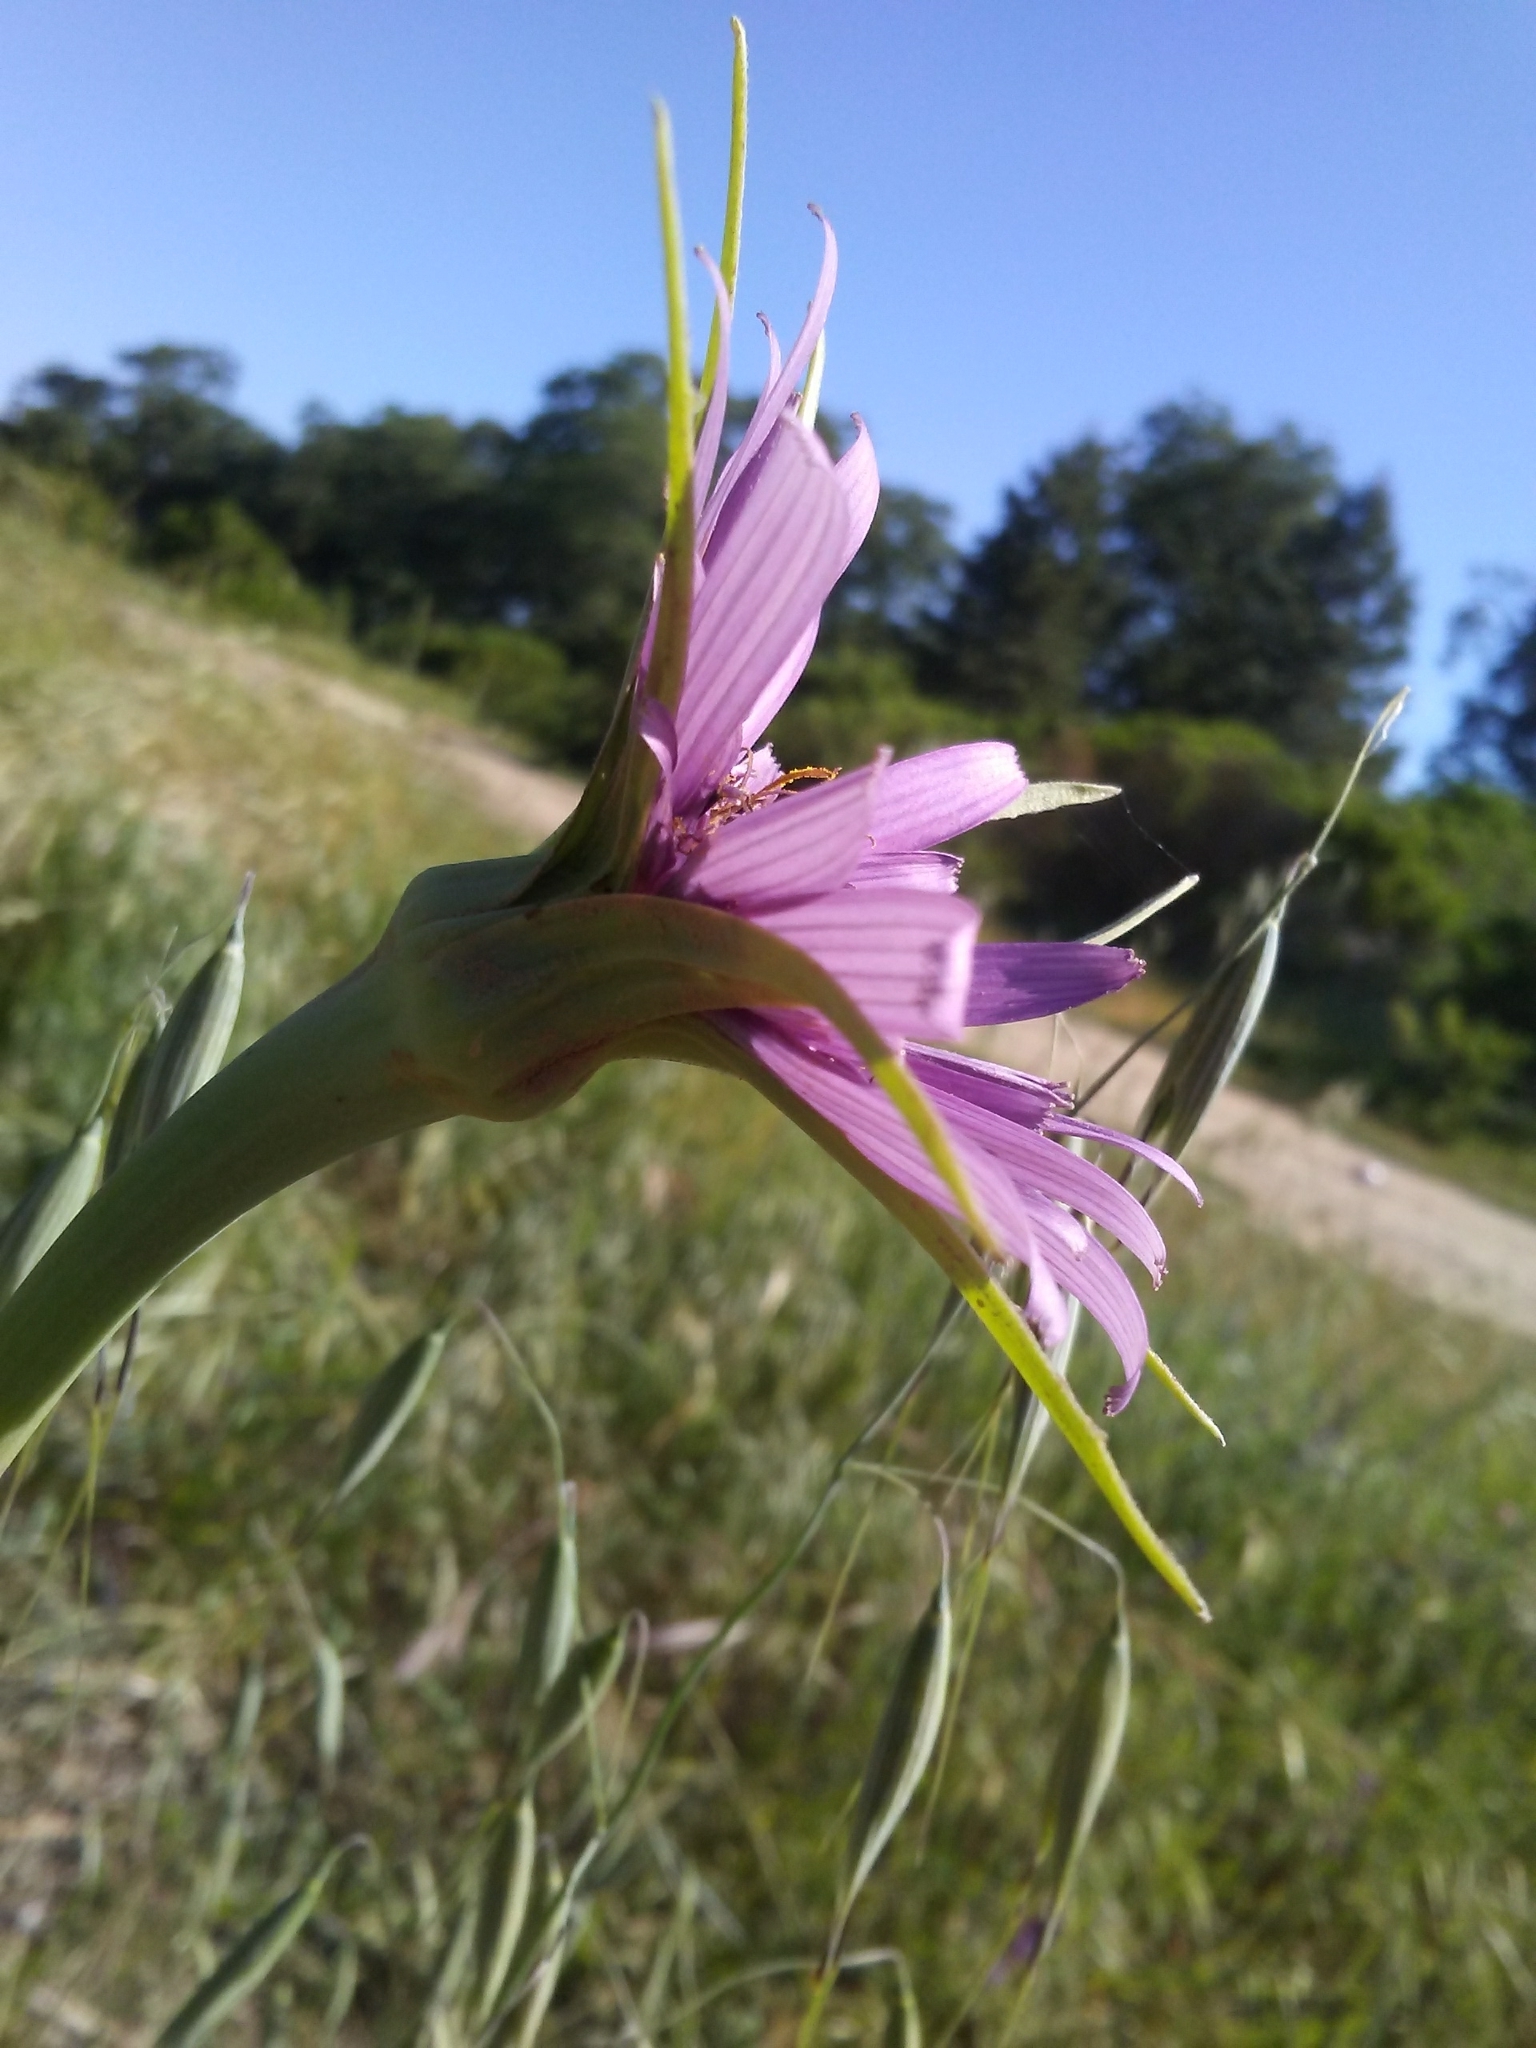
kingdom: Plantae
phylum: Tracheophyta
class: Magnoliopsida
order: Asterales
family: Asteraceae
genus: Tragopogon
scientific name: Tragopogon porrifolius
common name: Salsify
